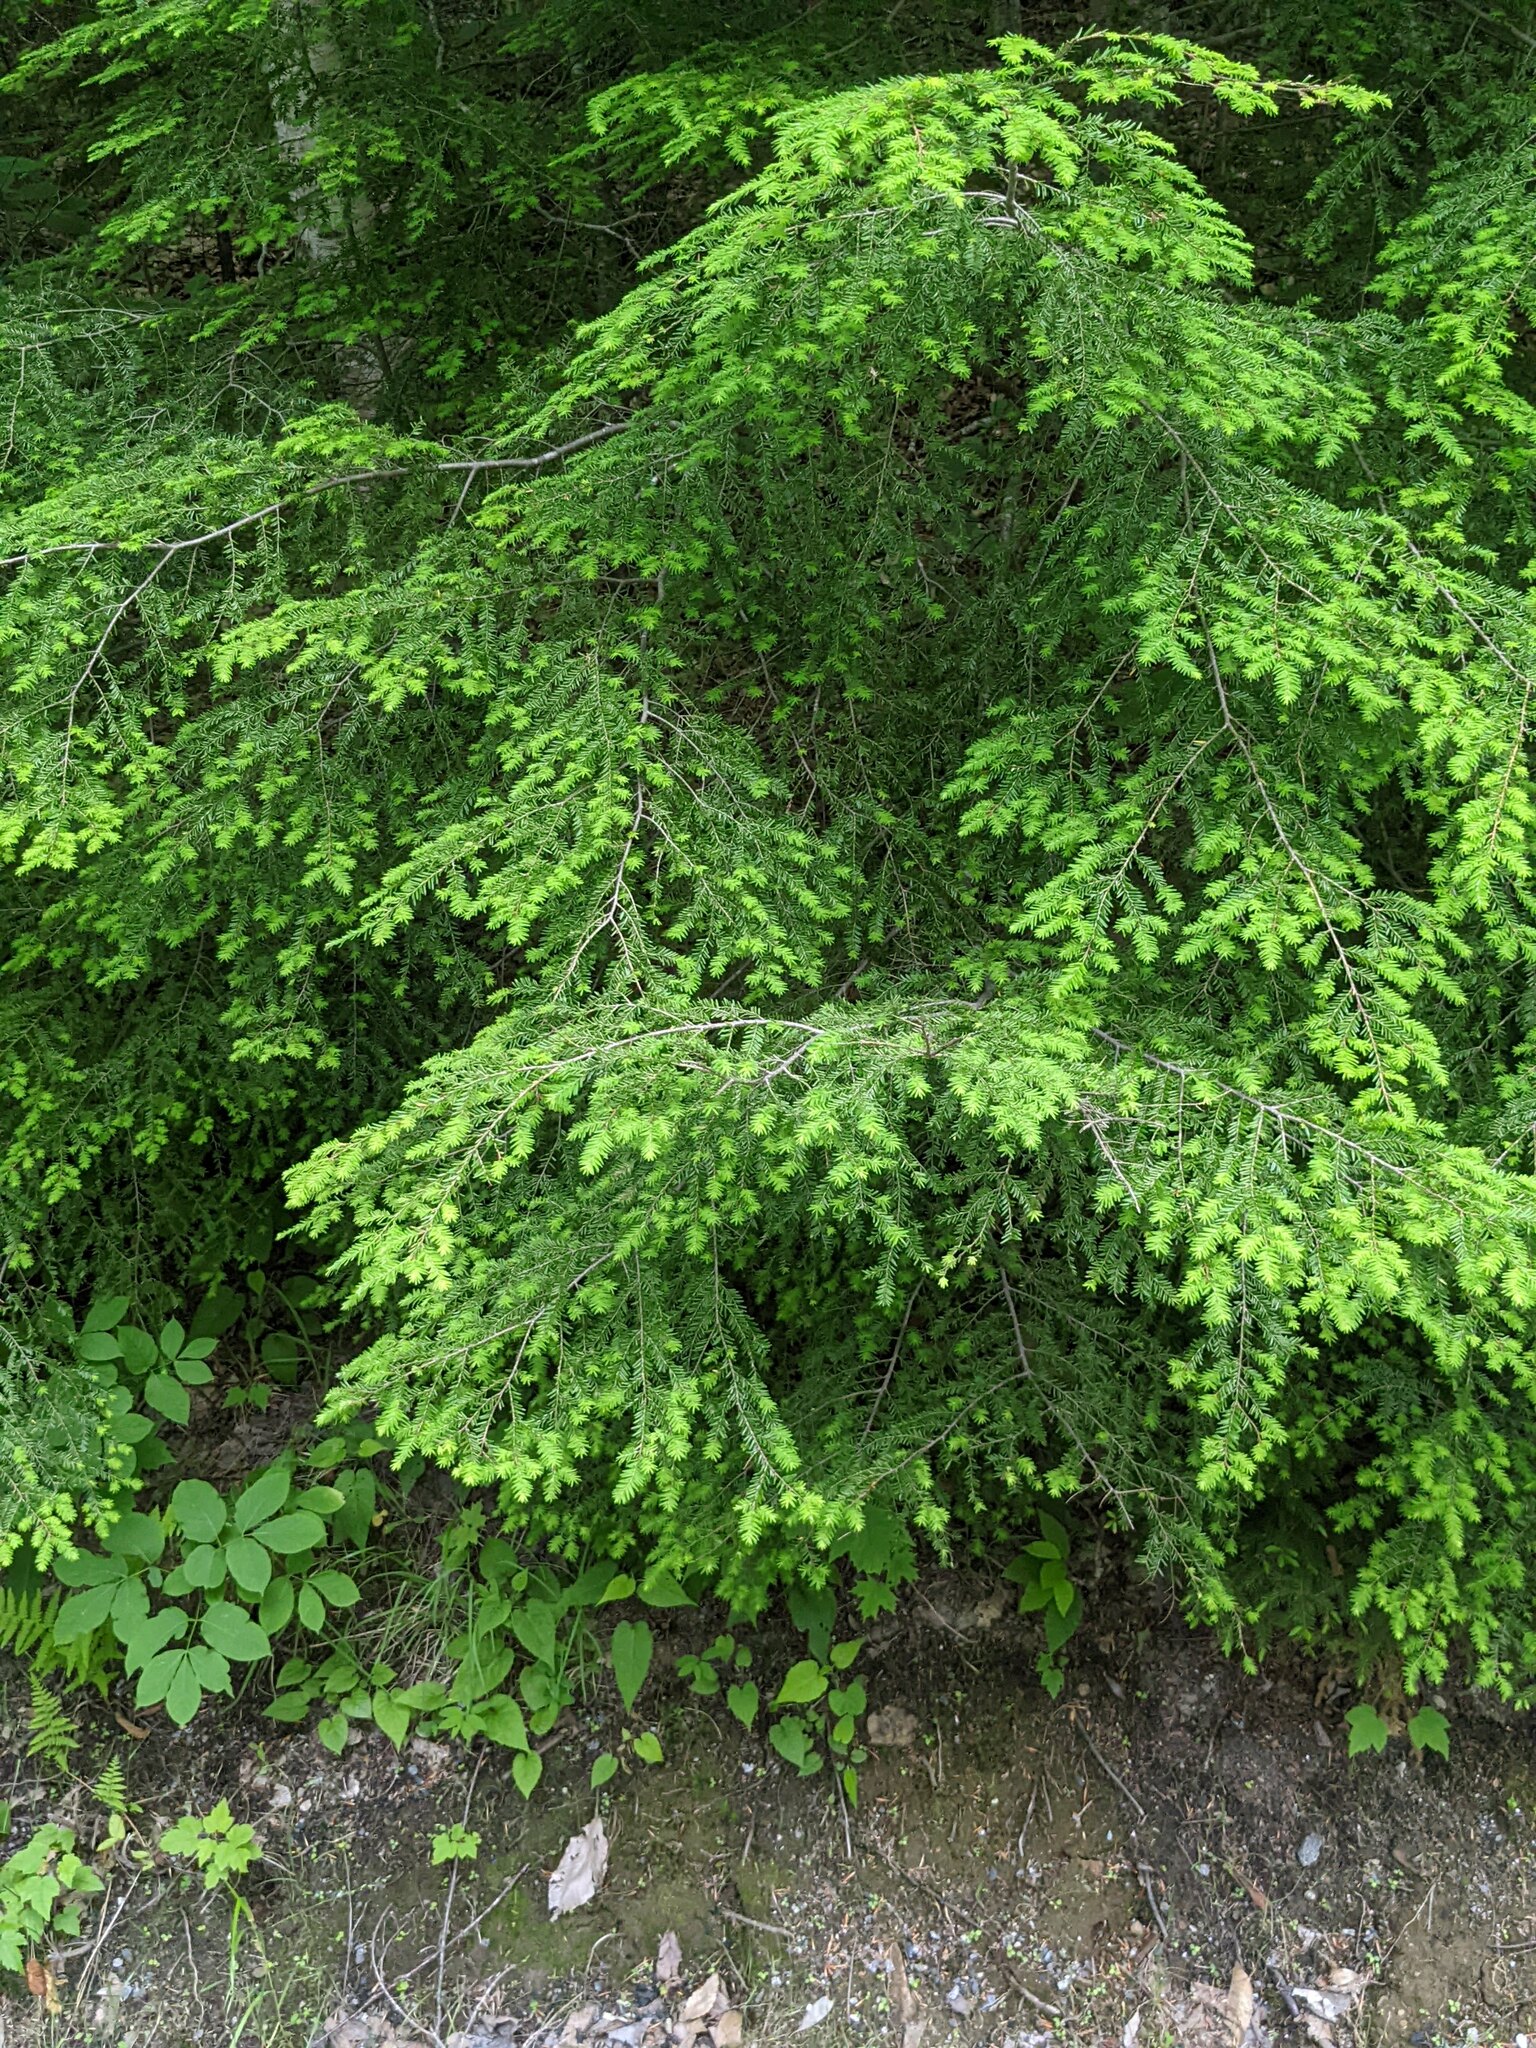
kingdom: Plantae
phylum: Tracheophyta
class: Pinopsida
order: Pinales
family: Pinaceae
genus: Tsuga
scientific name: Tsuga canadensis
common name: Eastern hemlock
